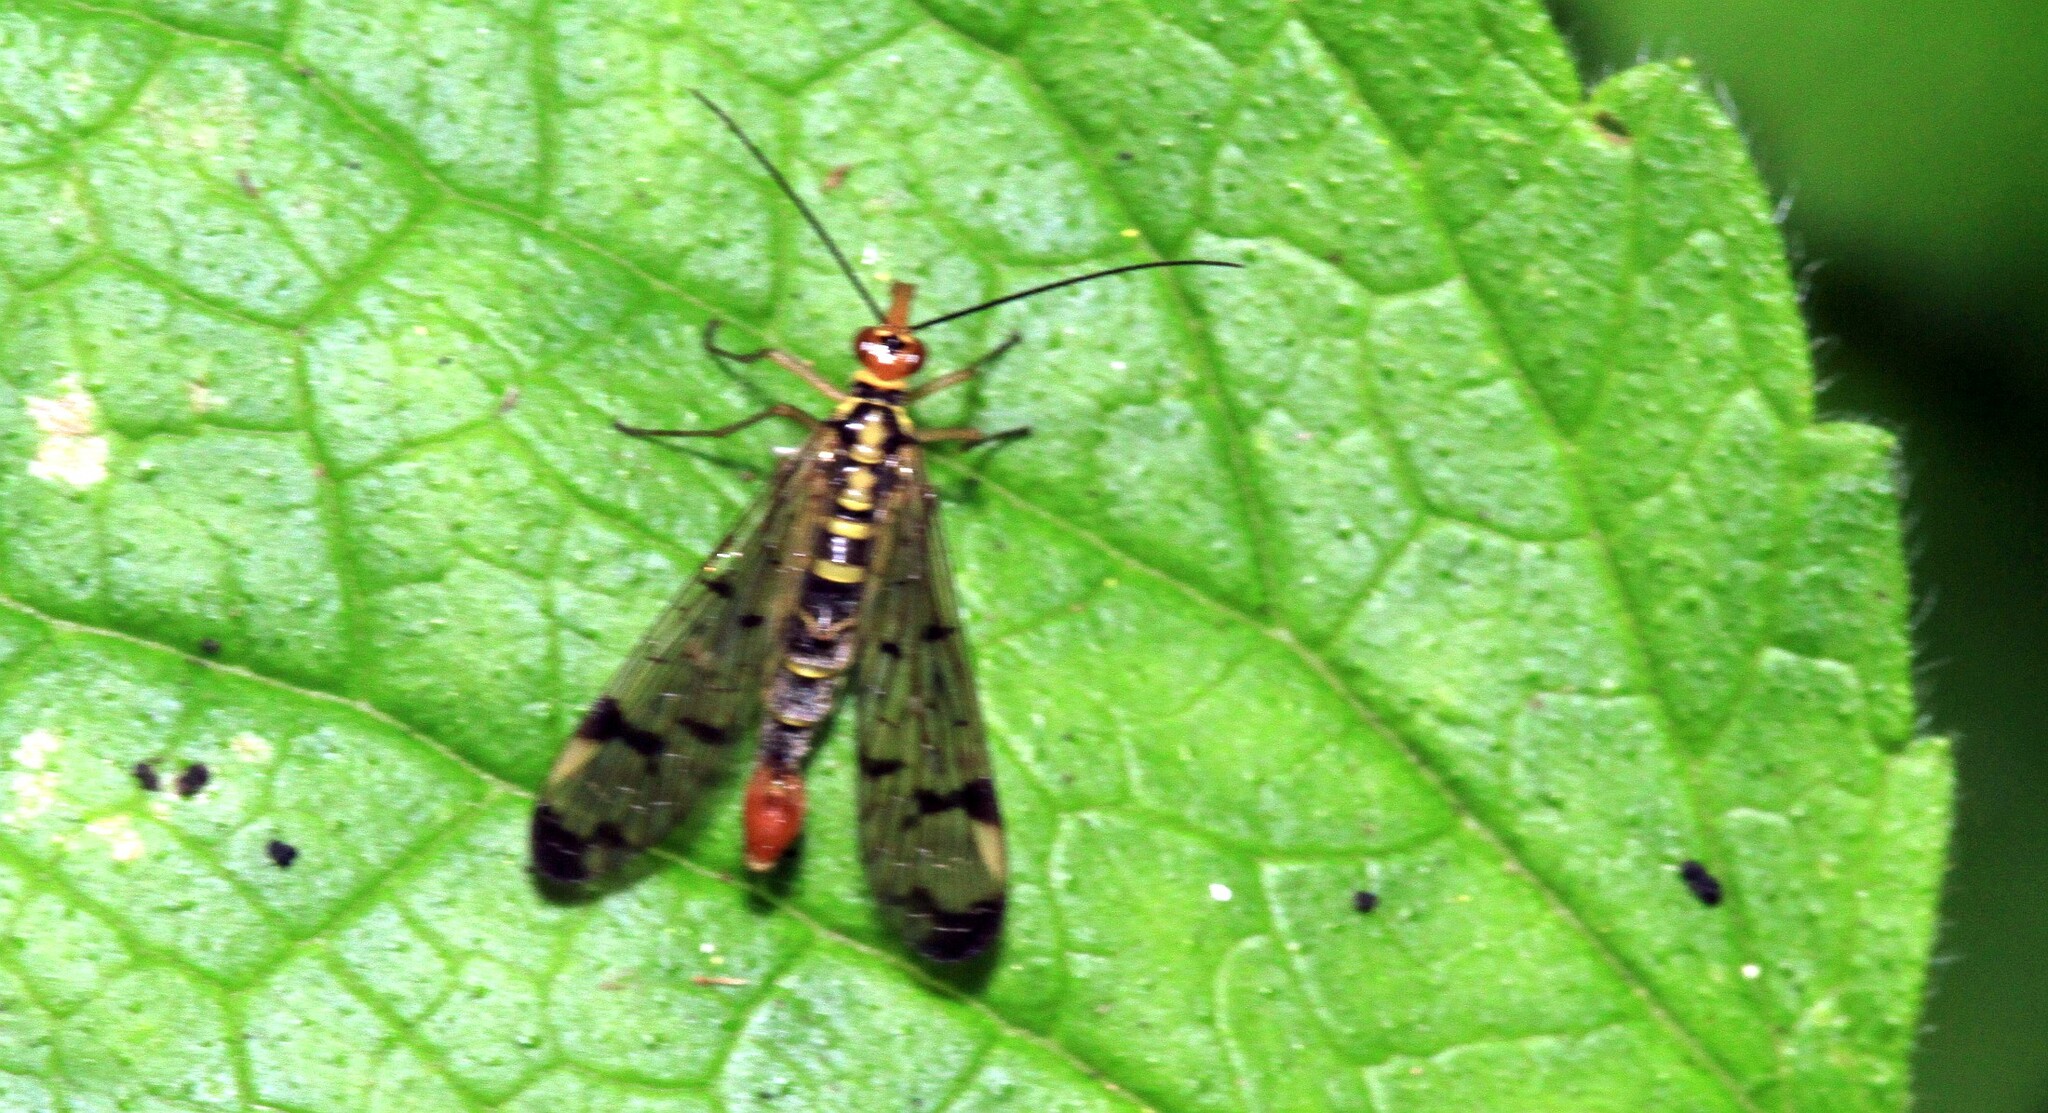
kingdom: Animalia
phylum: Arthropoda
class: Insecta
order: Mecoptera
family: Panorpidae
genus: Panorpa
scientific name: Panorpa lacedaemonia
